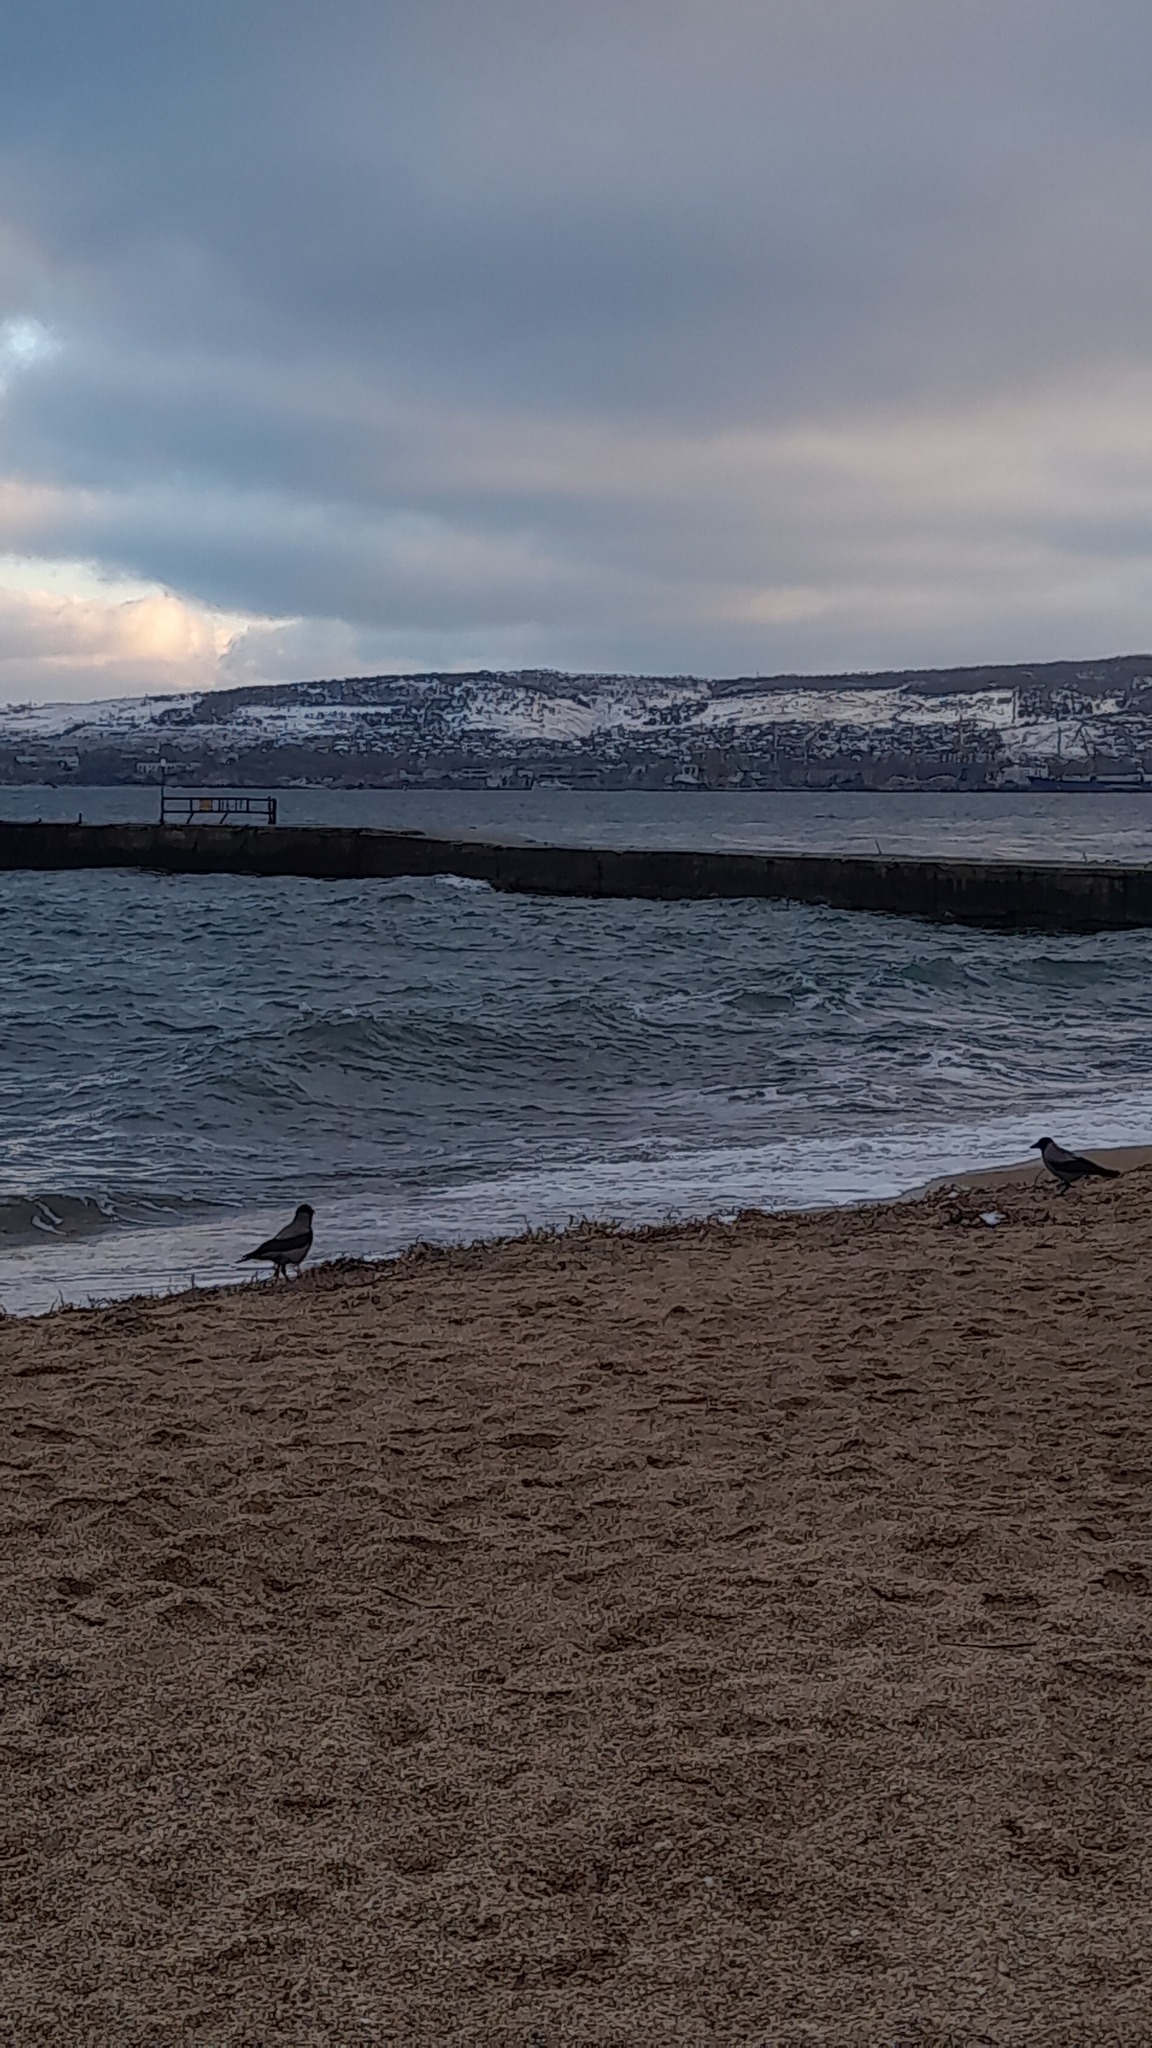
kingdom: Animalia
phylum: Chordata
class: Aves
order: Passeriformes
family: Corvidae
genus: Corvus
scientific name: Corvus cornix
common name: Hooded crow
